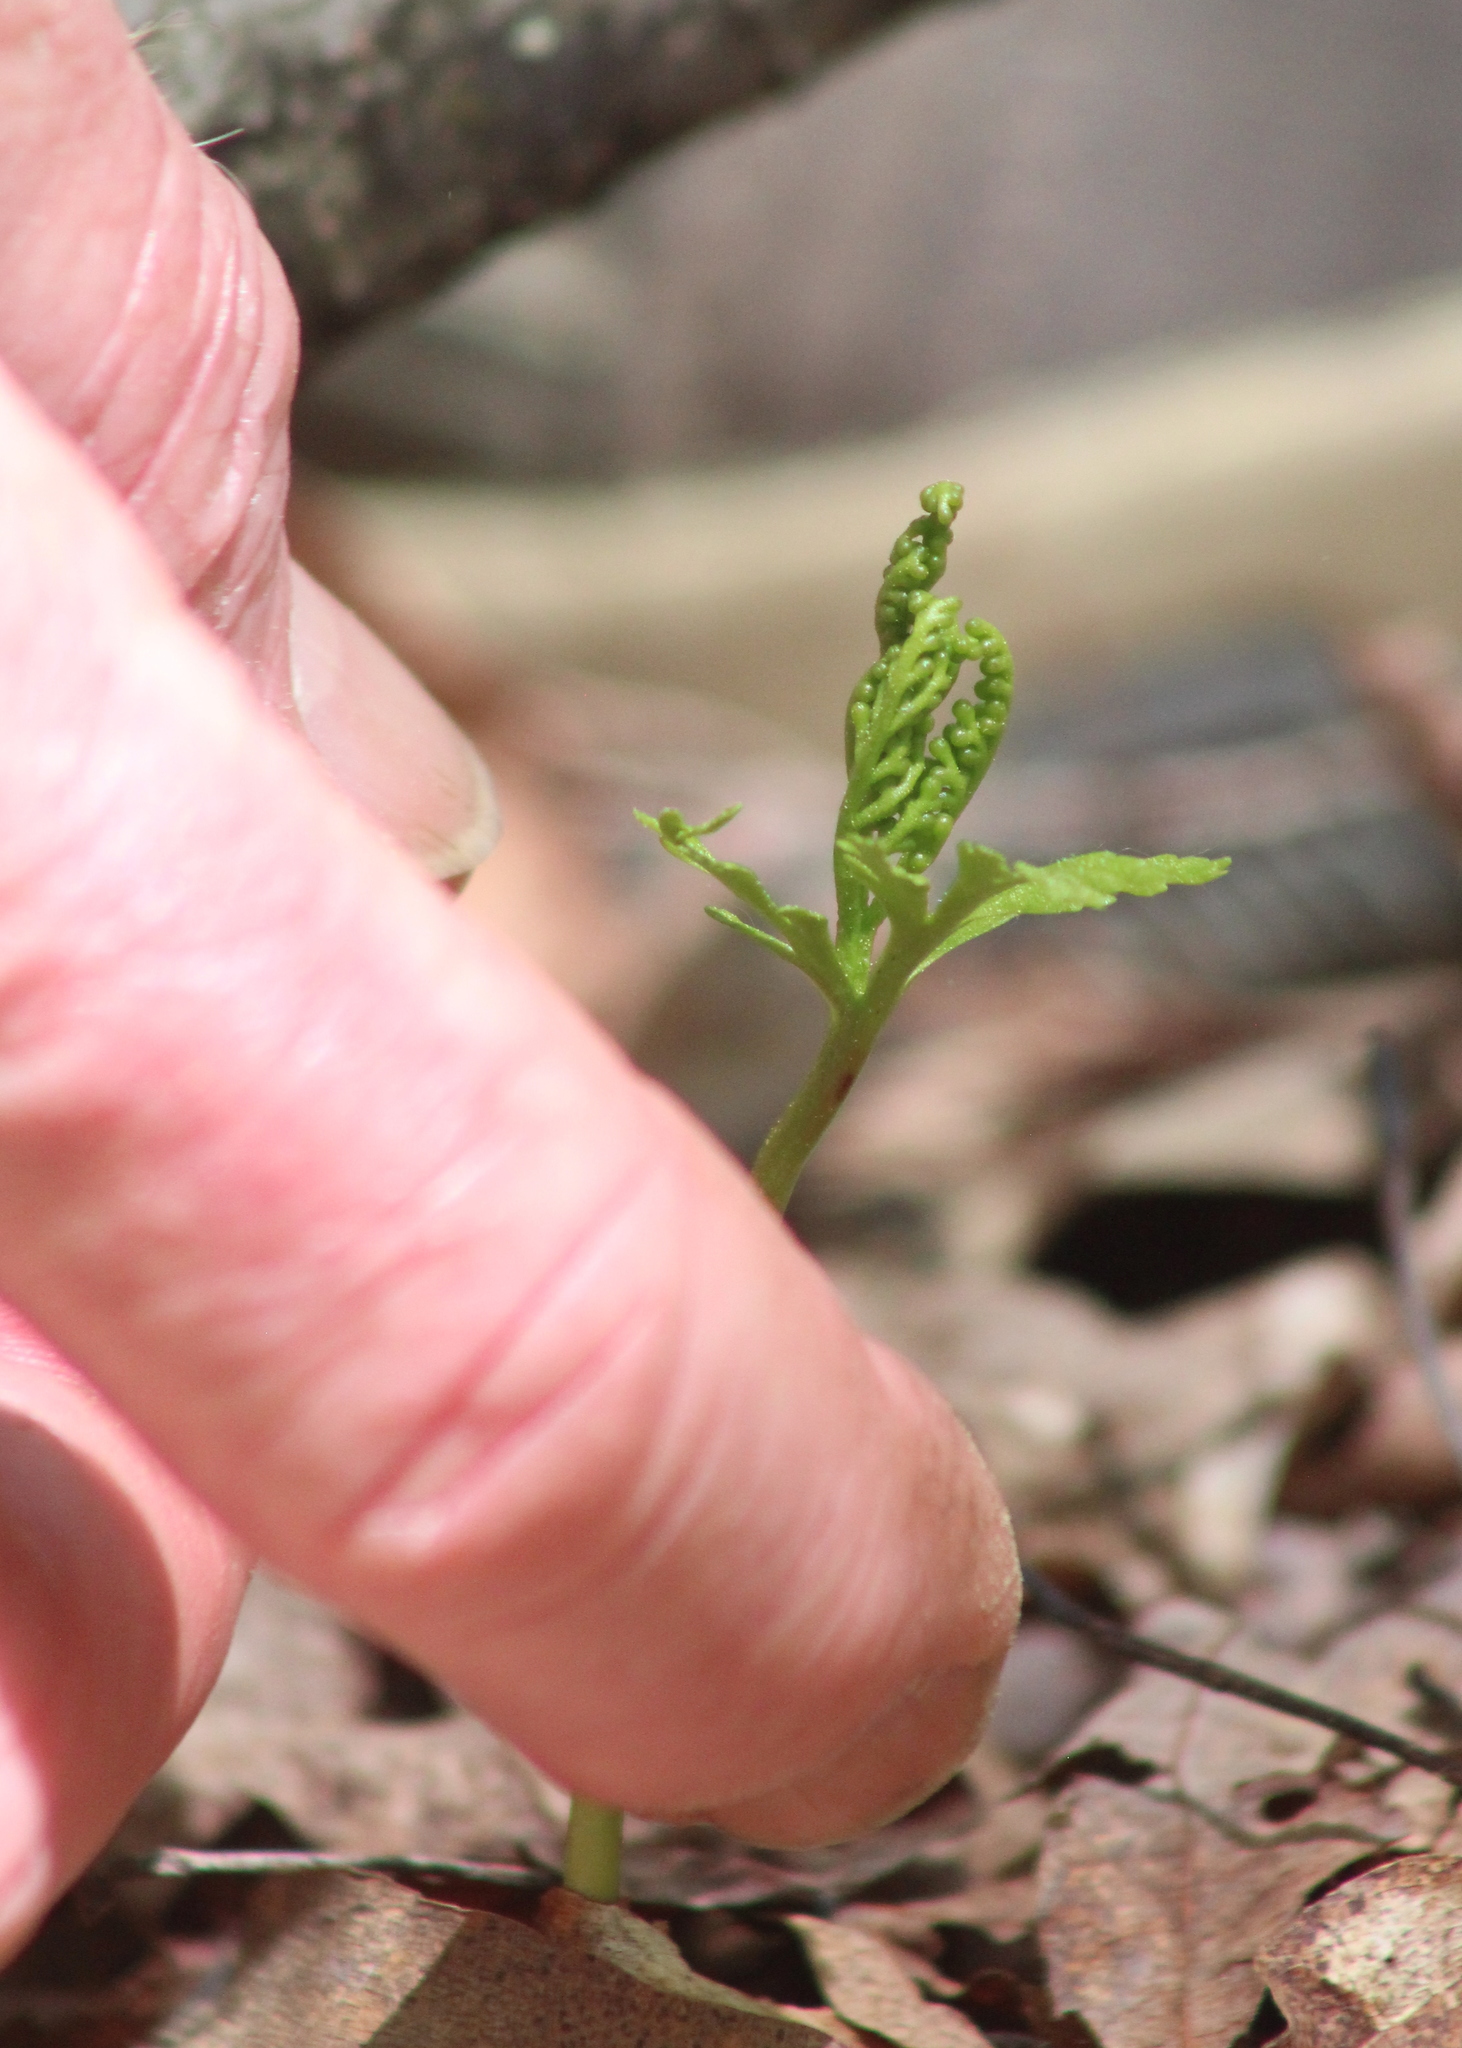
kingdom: Plantae
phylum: Tracheophyta
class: Polypodiopsida
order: Ophioglossales
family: Ophioglossaceae
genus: Botrychium
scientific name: Botrychium angustisegmentum
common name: Narrow triangle moonwort
